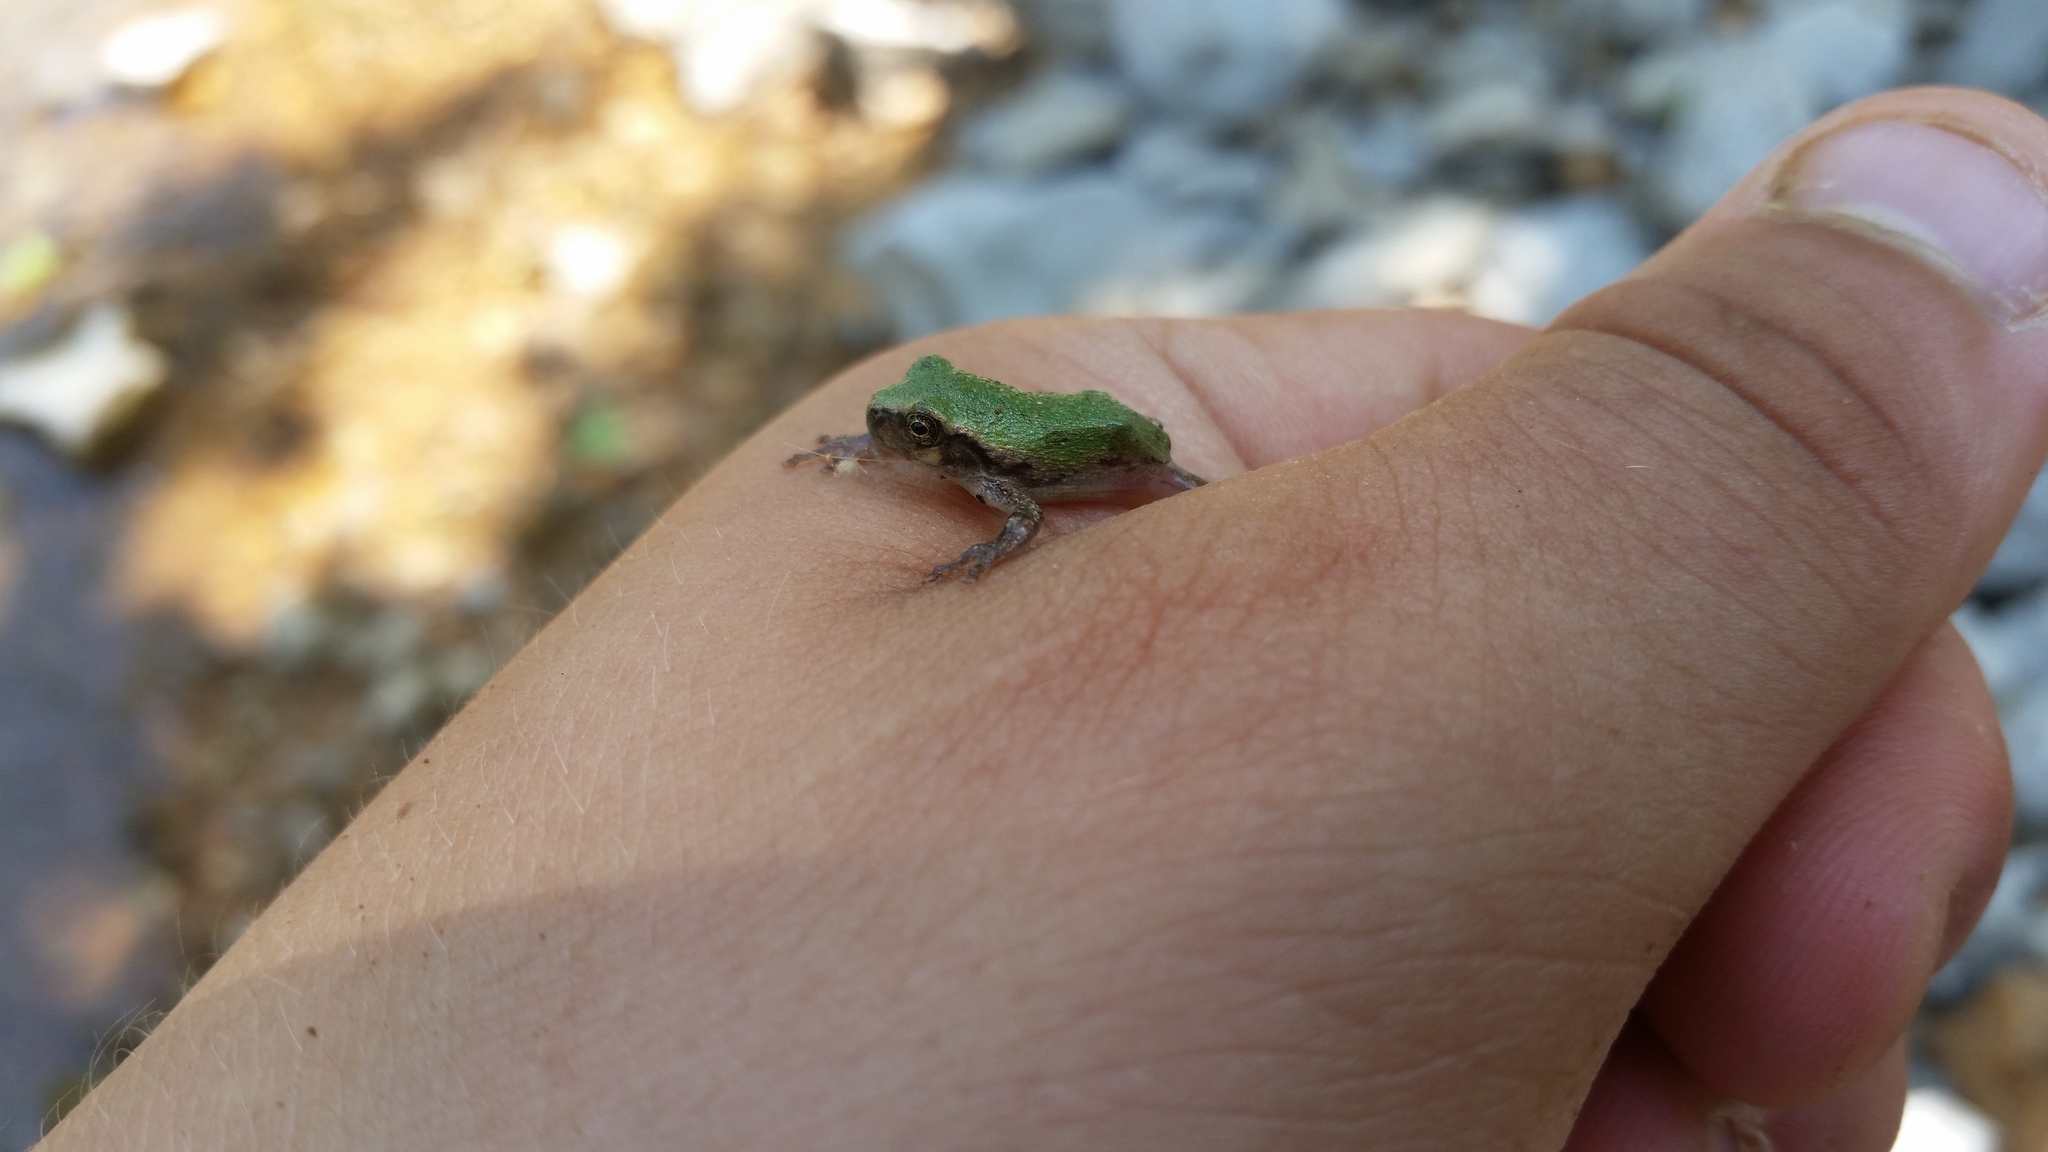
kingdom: Animalia
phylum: Chordata
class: Amphibia
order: Anura
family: Hylidae
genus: Dryophytes
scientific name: Dryophytes chrysoscelis
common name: Cope's gray treefrog
